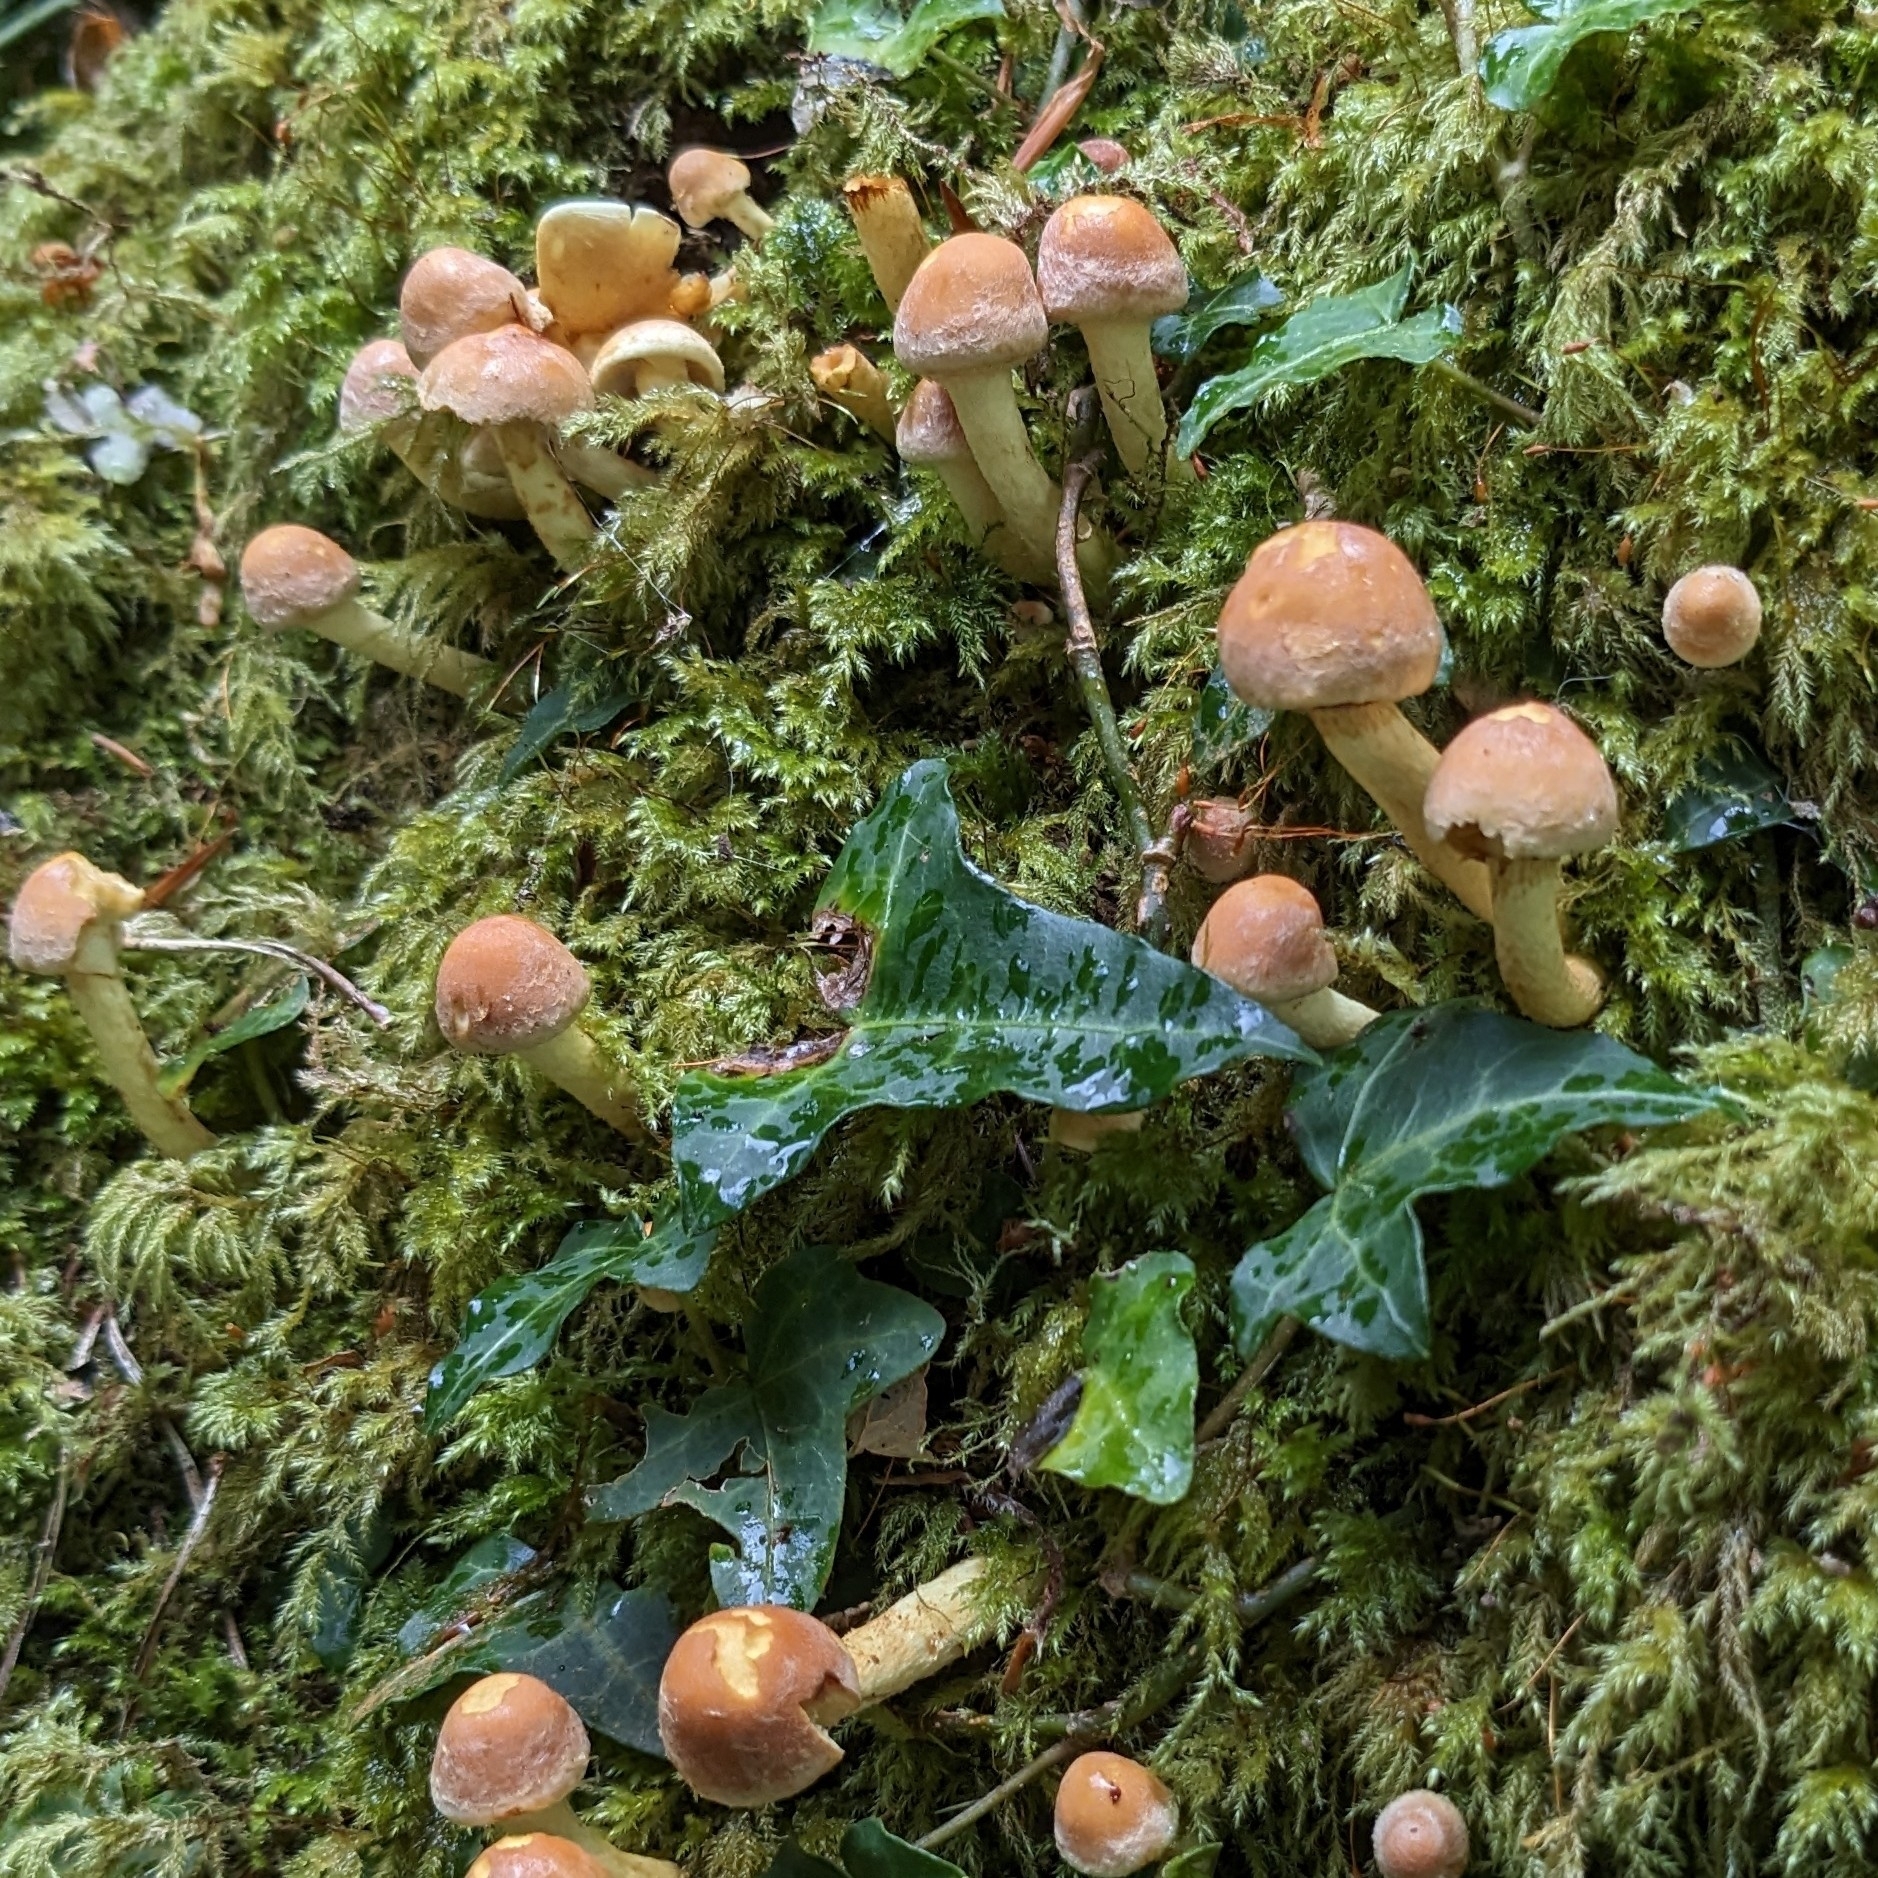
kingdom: Fungi
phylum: Basidiomycota
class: Agaricomycetes
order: Agaricales
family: Strophariaceae
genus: Hypholoma
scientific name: Hypholoma fasciculare
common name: Sulphur tuft
